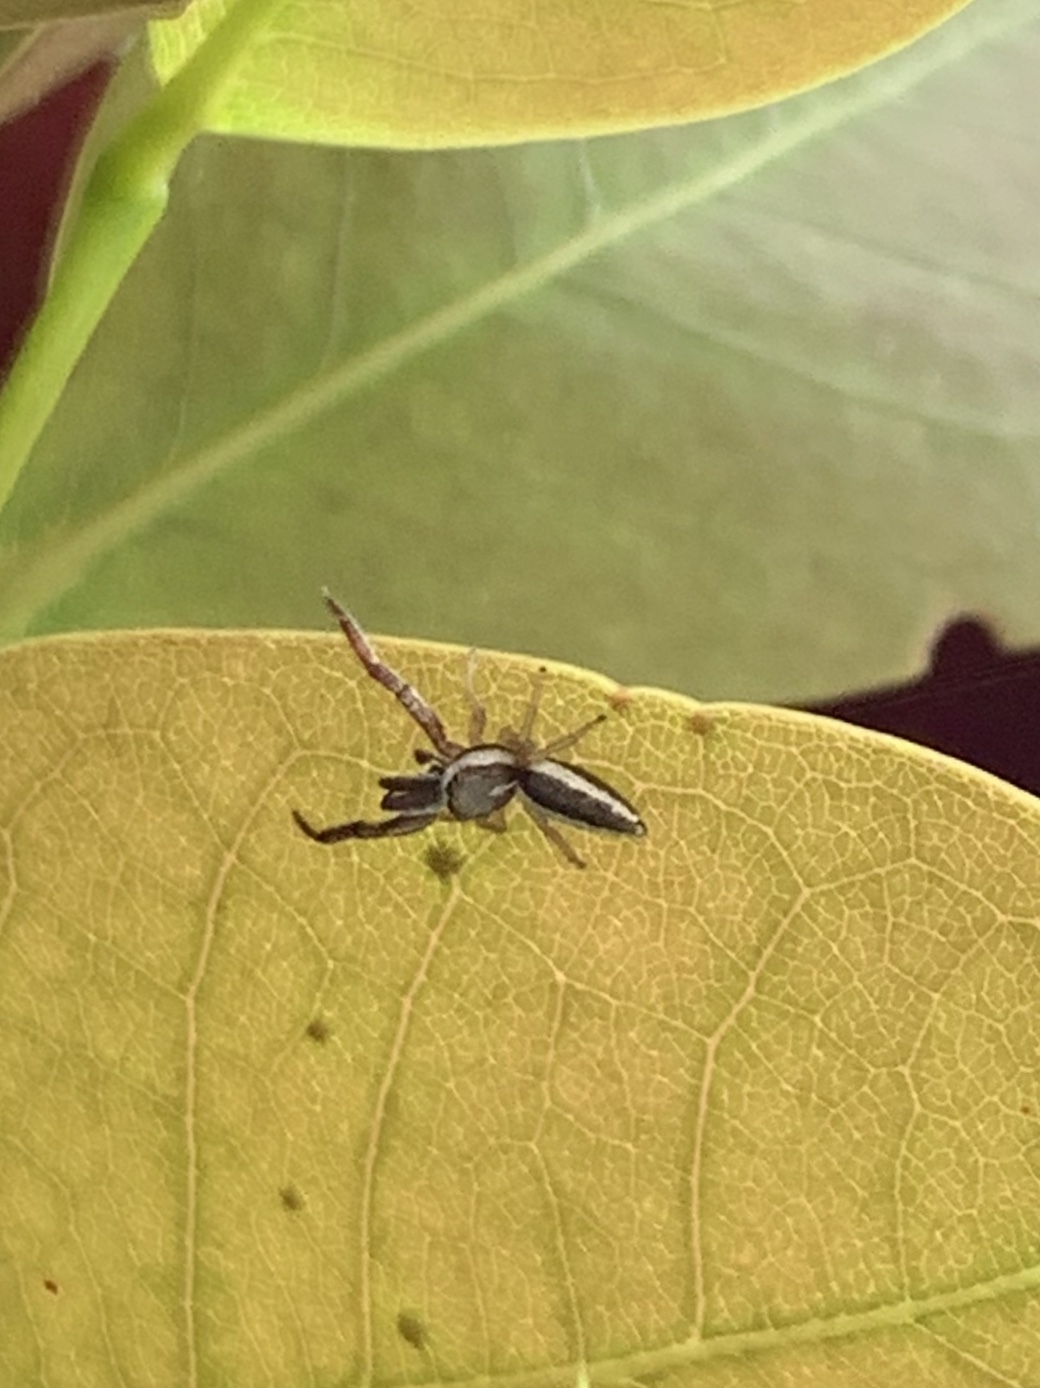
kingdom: Animalia
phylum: Arthropoda
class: Arachnida
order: Araneae
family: Salticidae
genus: Hentzia
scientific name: Hentzia palmarum
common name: Common hentz jumping spider
